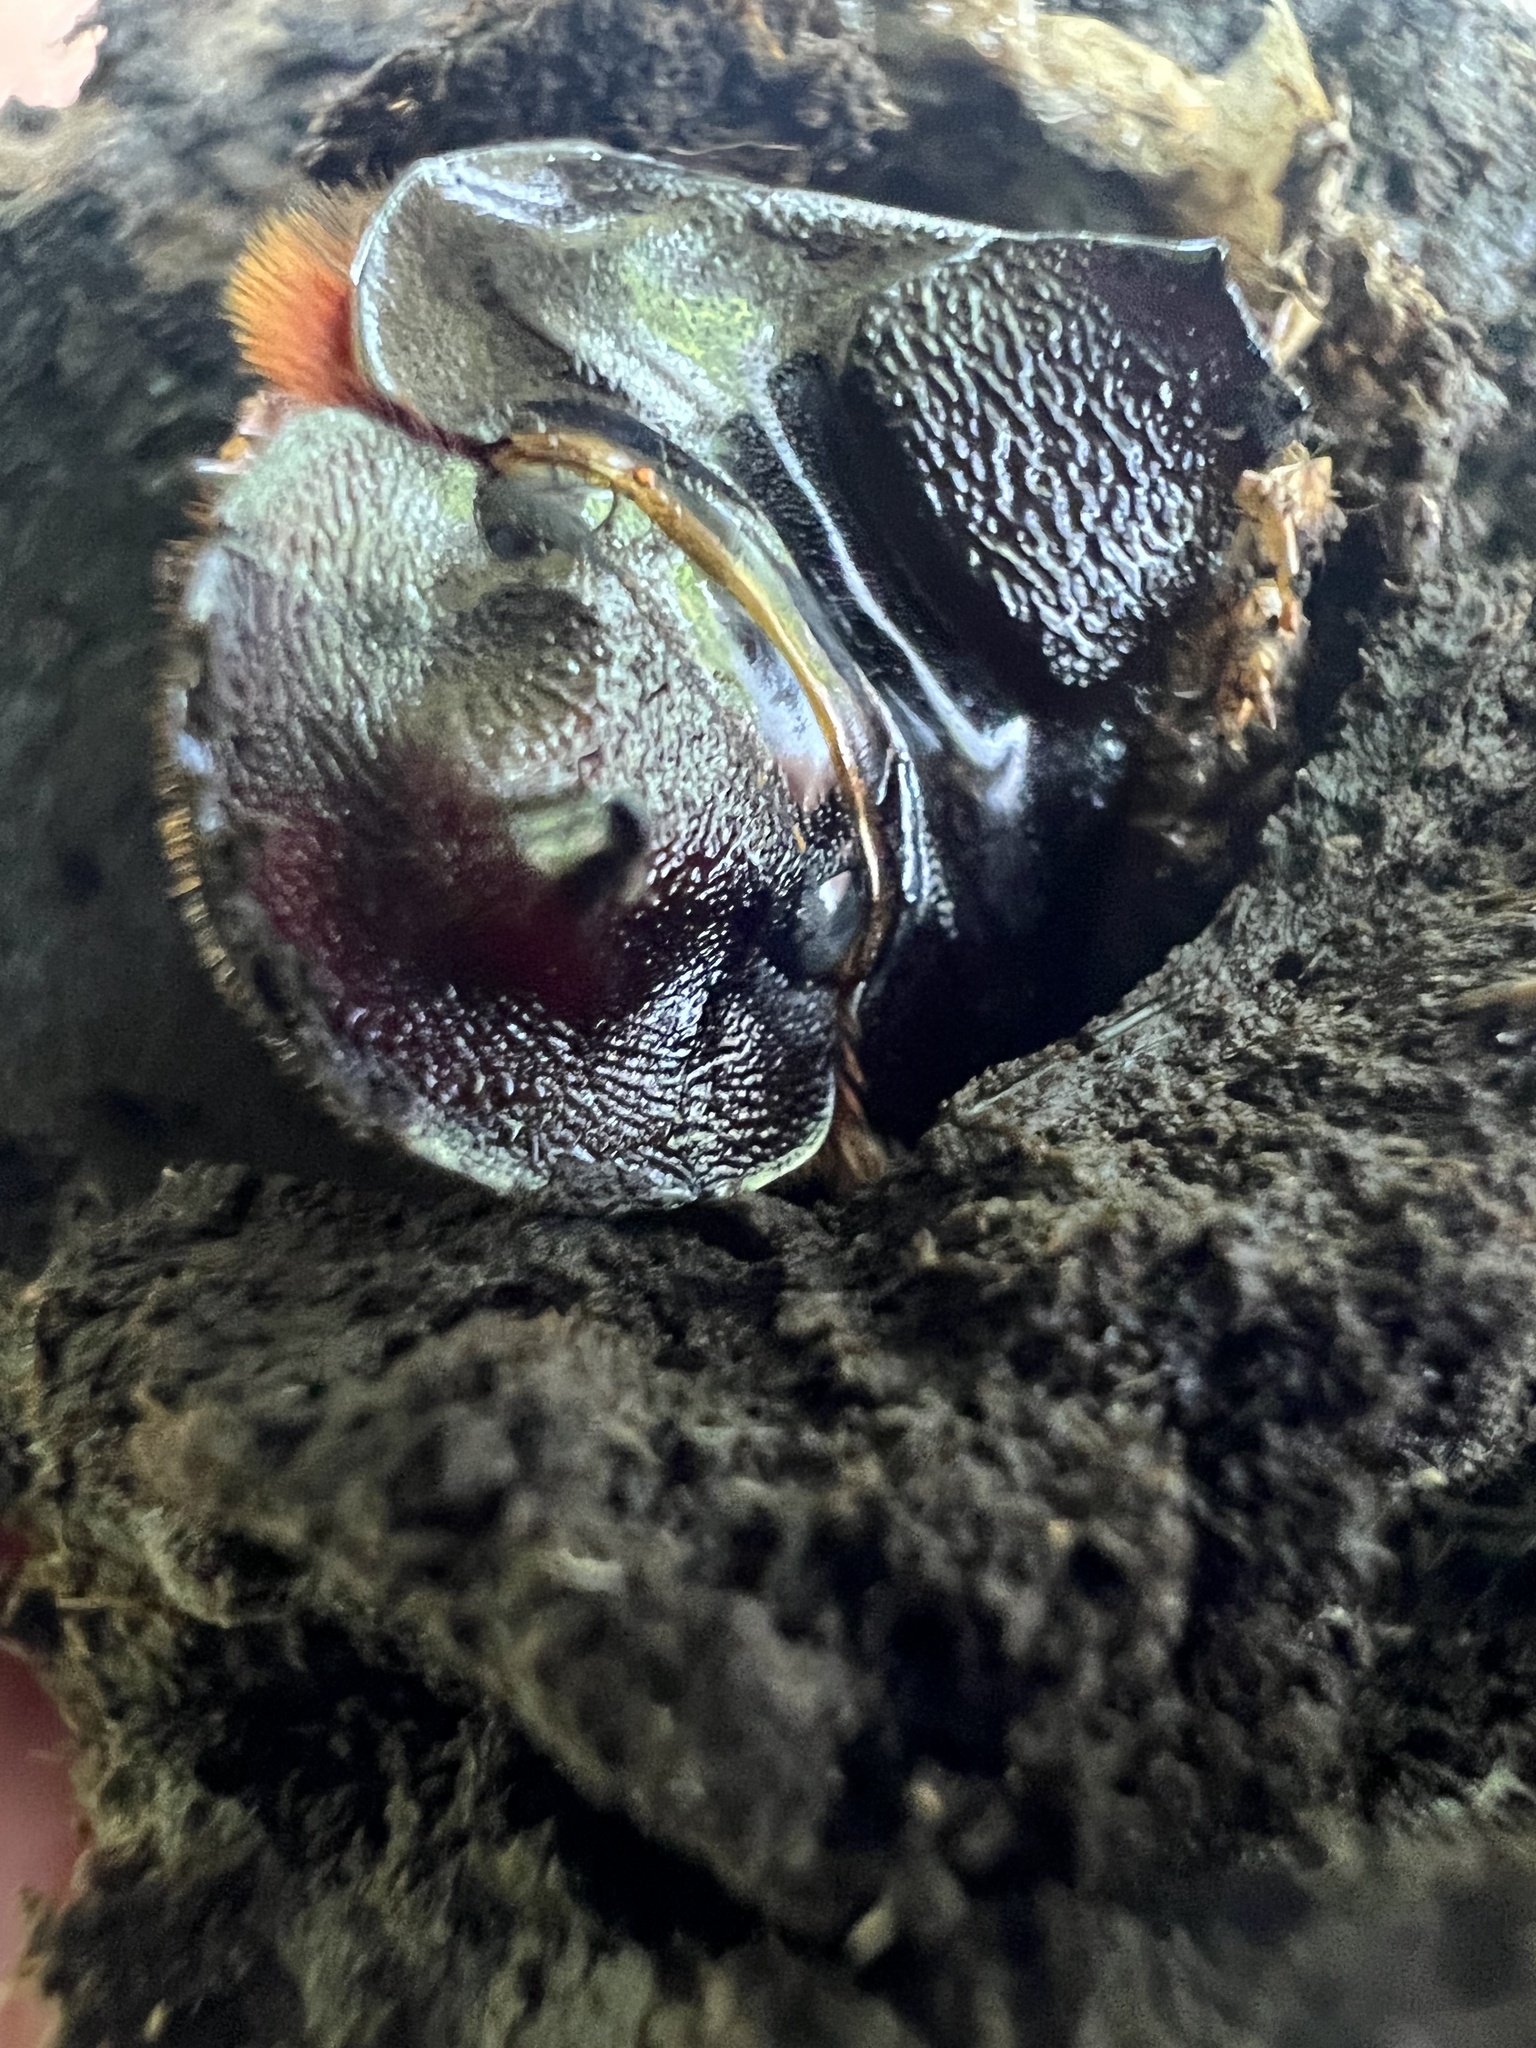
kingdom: Animalia
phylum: Arthropoda
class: Insecta
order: Coleoptera
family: Scarabaeidae
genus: Homocopris
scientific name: Homocopris achamas
